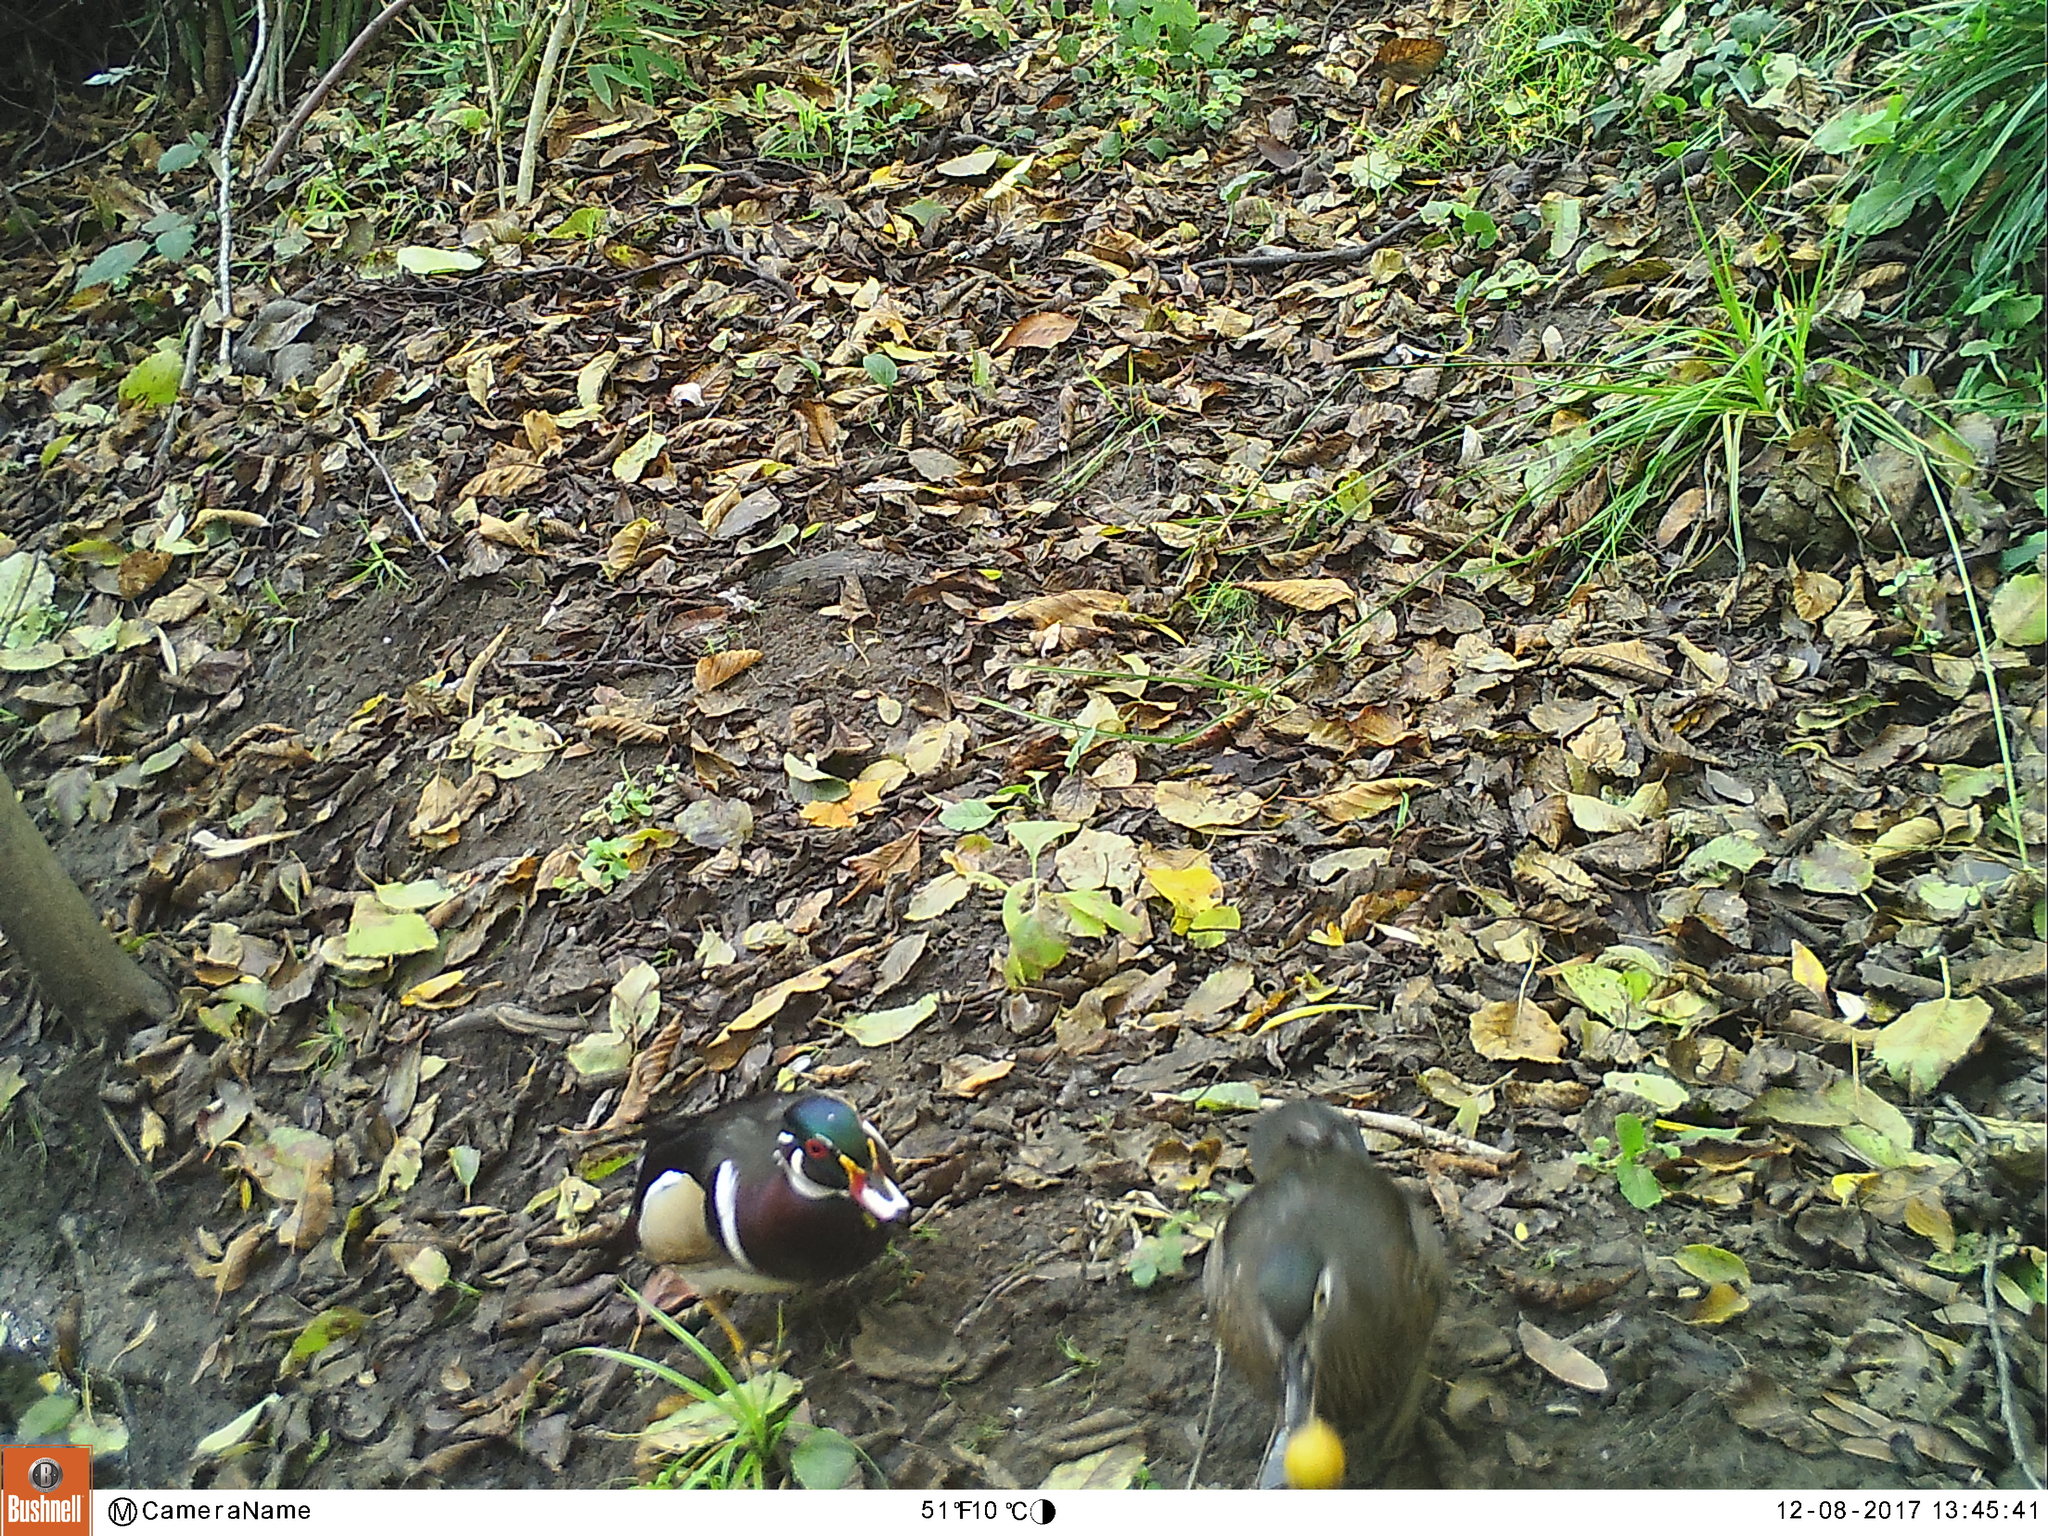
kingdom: Animalia
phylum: Chordata
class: Aves
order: Anseriformes
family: Anatidae
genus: Aix
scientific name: Aix sponsa
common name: Wood duck
